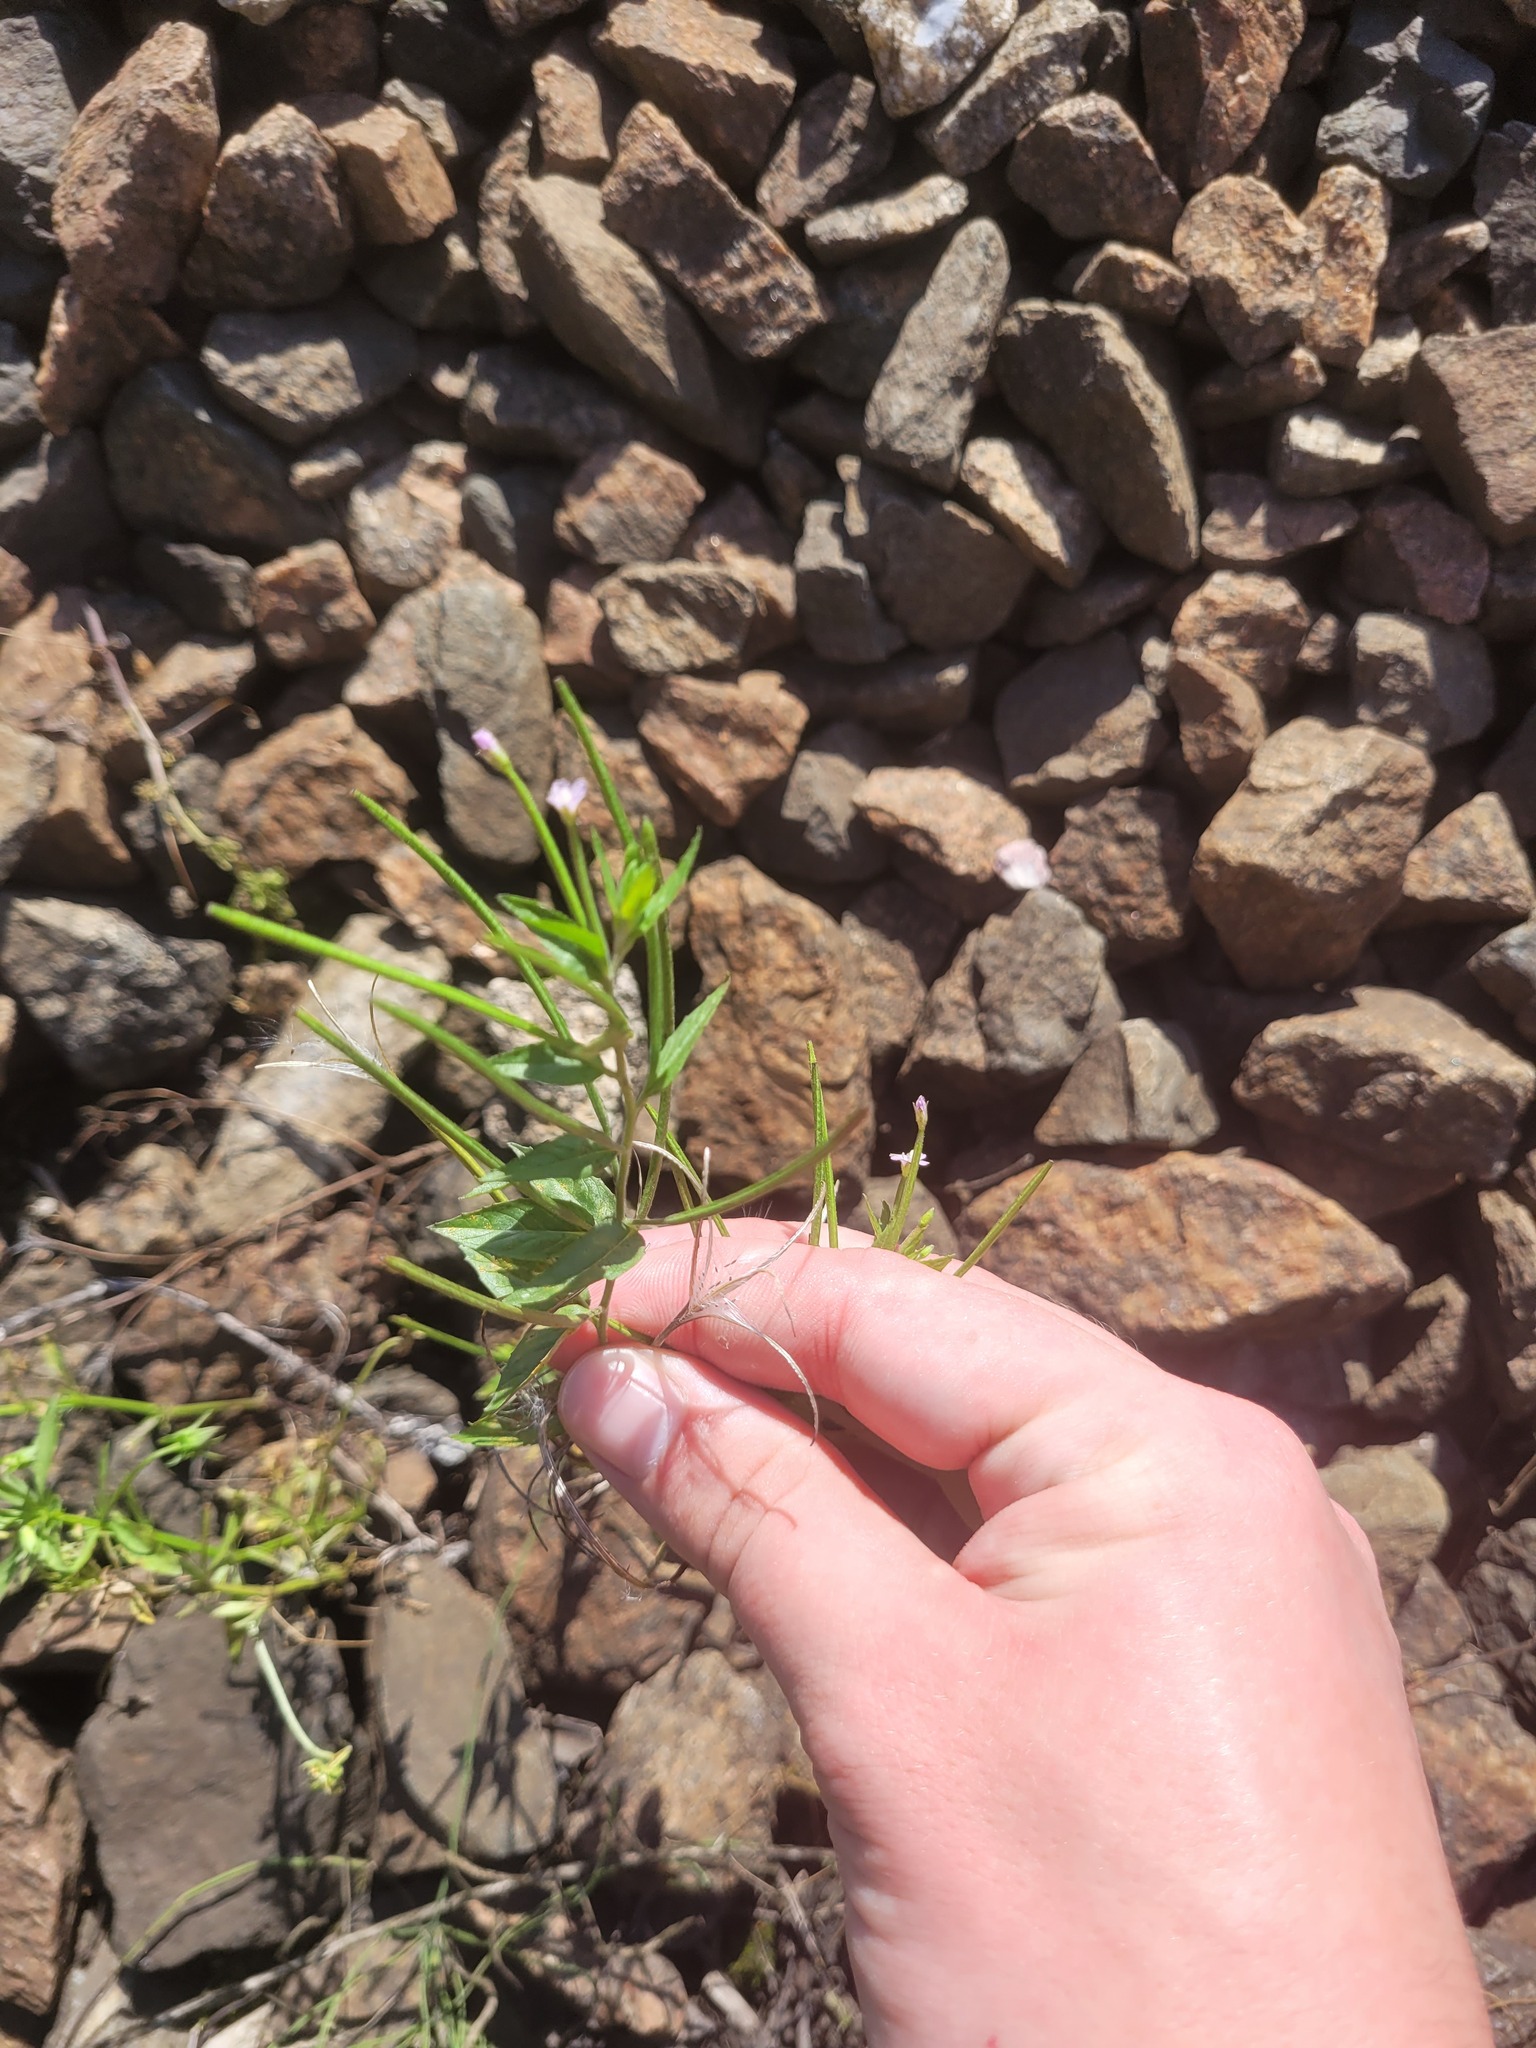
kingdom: Plantae
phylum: Tracheophyta
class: Magnoliopsida
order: Myrtales
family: Onagraceae
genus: Epilobium
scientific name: Epilobium ciliatum
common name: American willowherb
